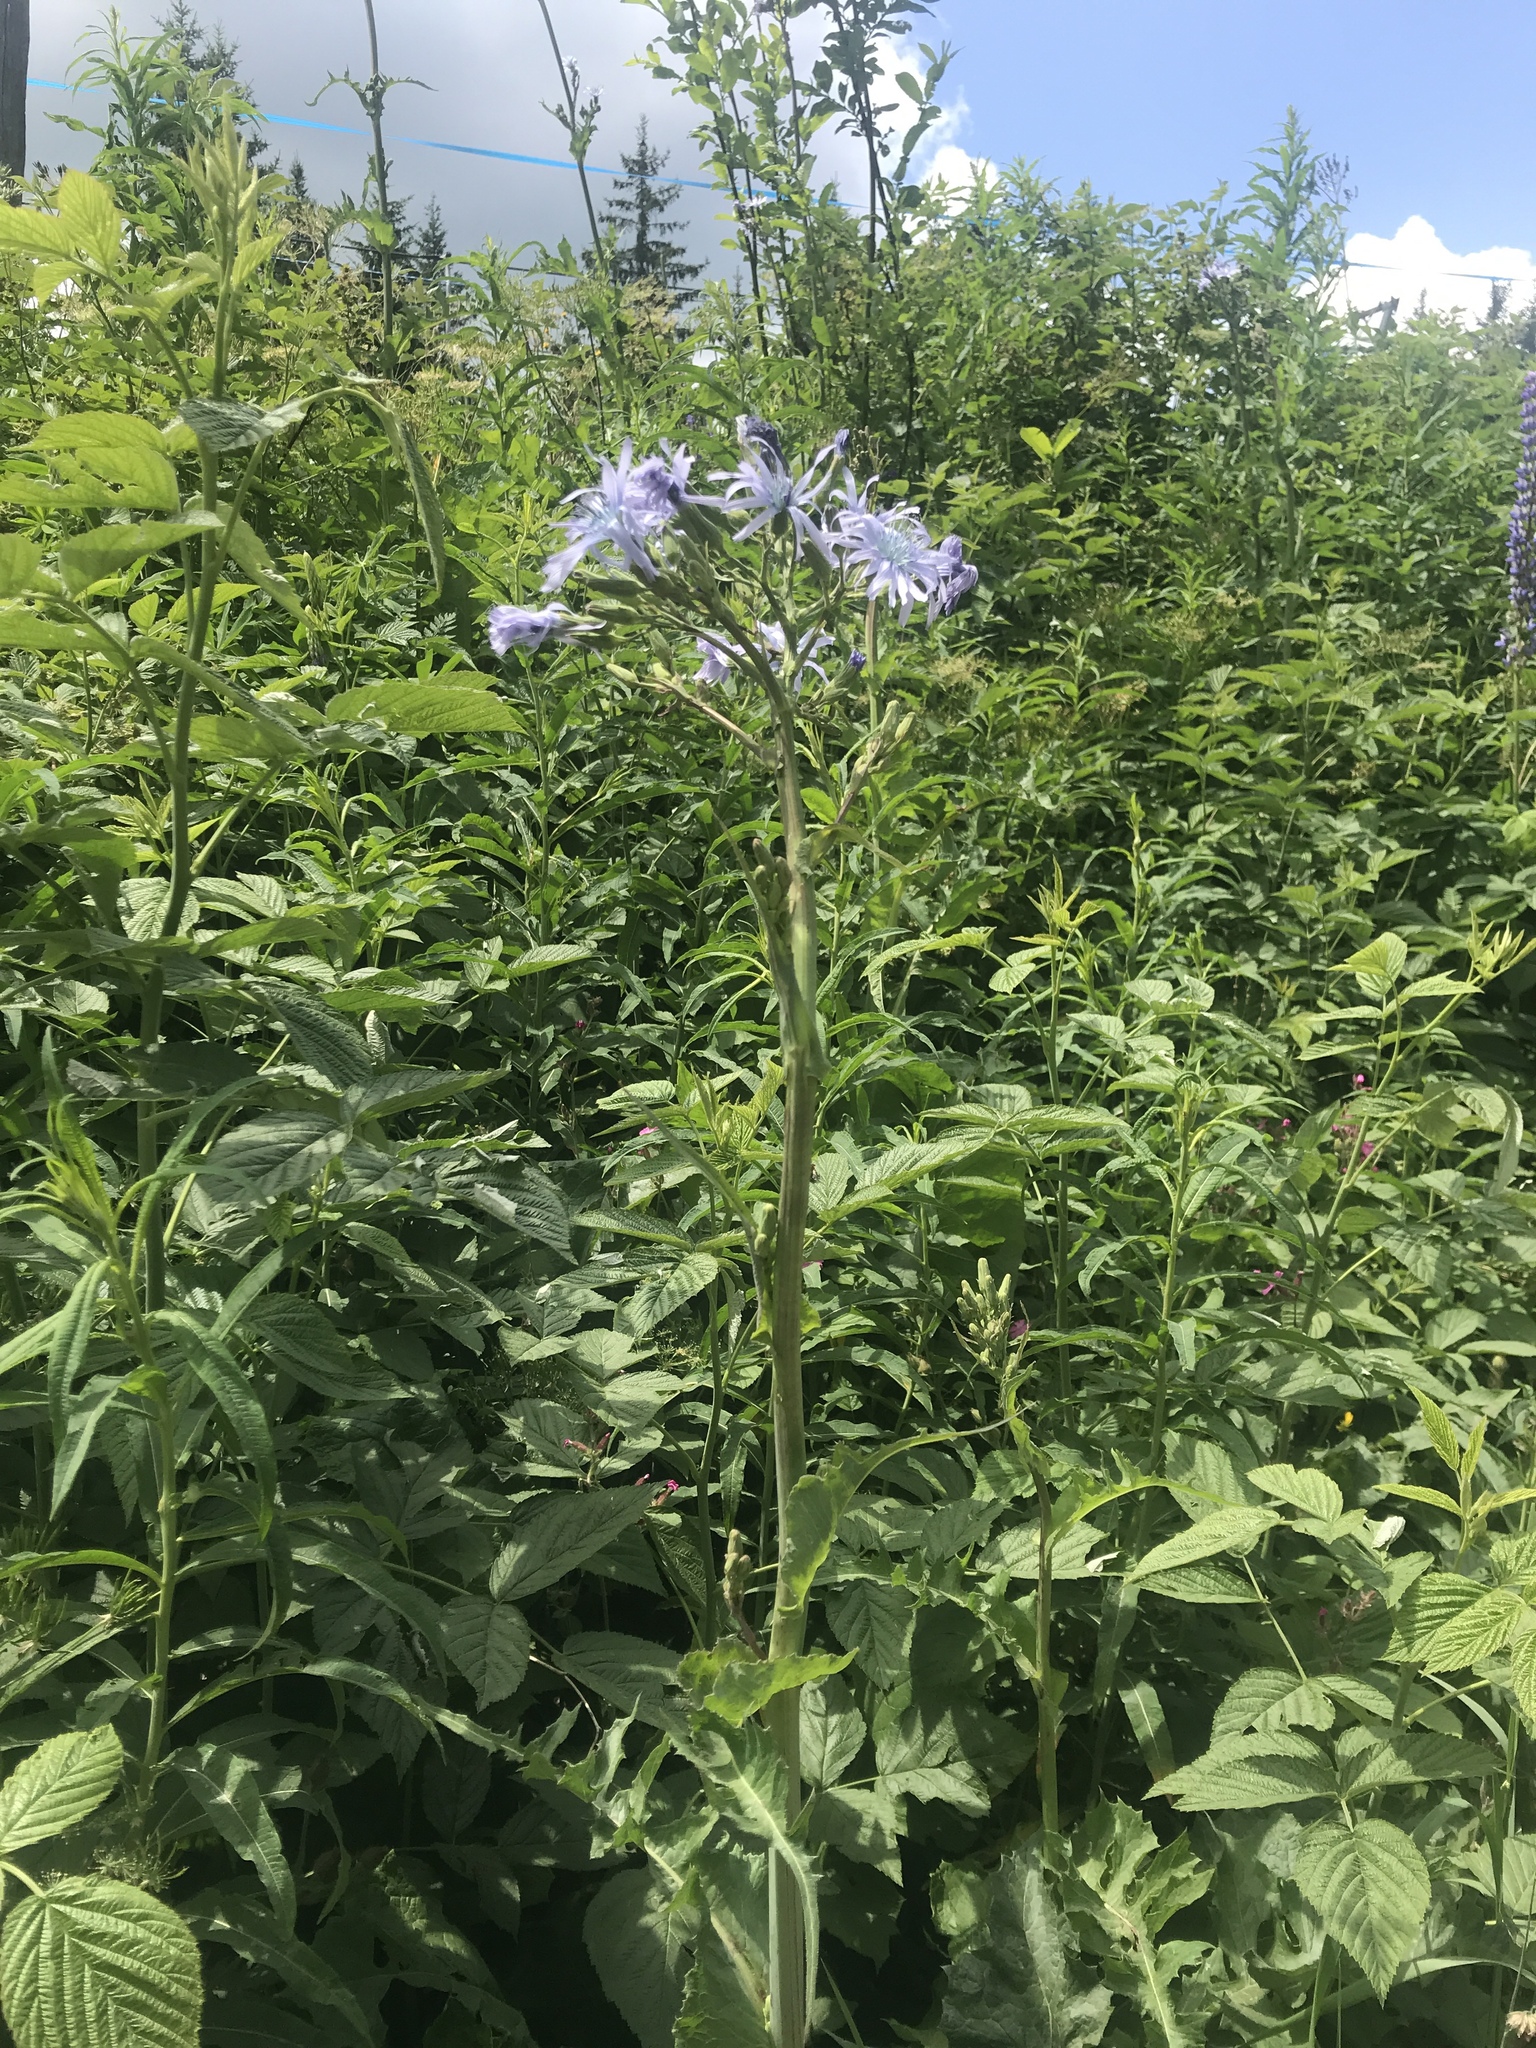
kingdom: Plantae
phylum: Tracheophyta
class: Magnoliopsida
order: Asterales
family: Asteraceae
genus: Lactuca
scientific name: Lactuca plumieri
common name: Hairless blue-sow-thistle
